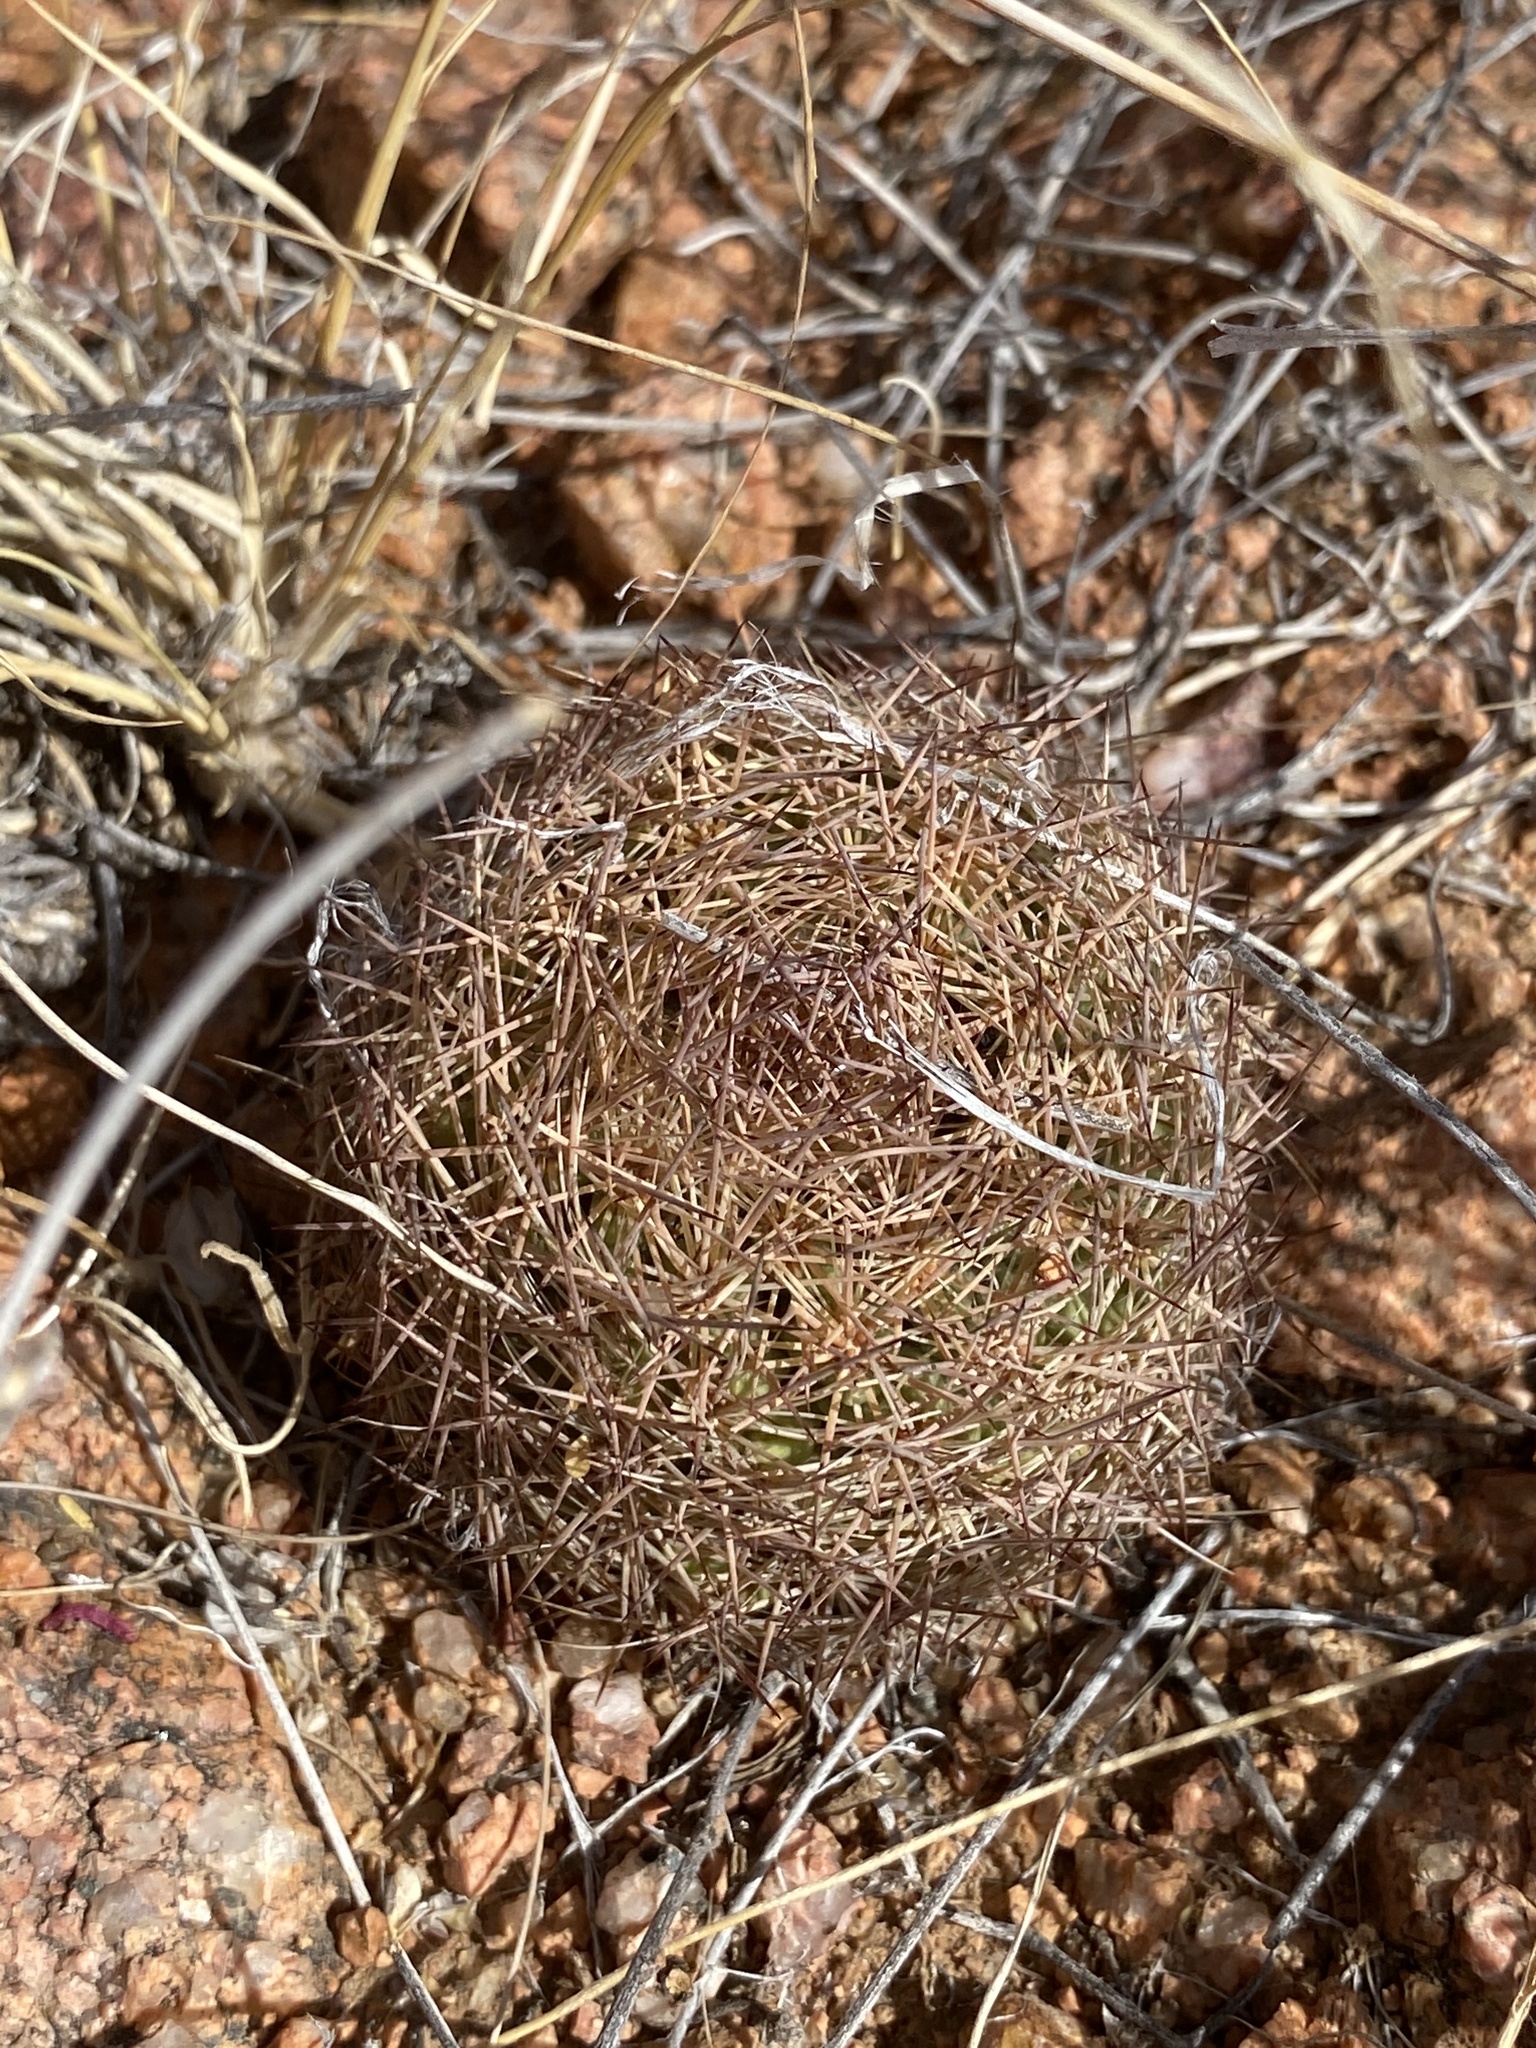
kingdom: Plantae
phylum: Tracheophyta
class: Magnoliopsida
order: Caryophyllales
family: Cactaceae
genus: Sclerocactus
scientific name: Sclerocactus intertextus
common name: White fish-hook cactus
